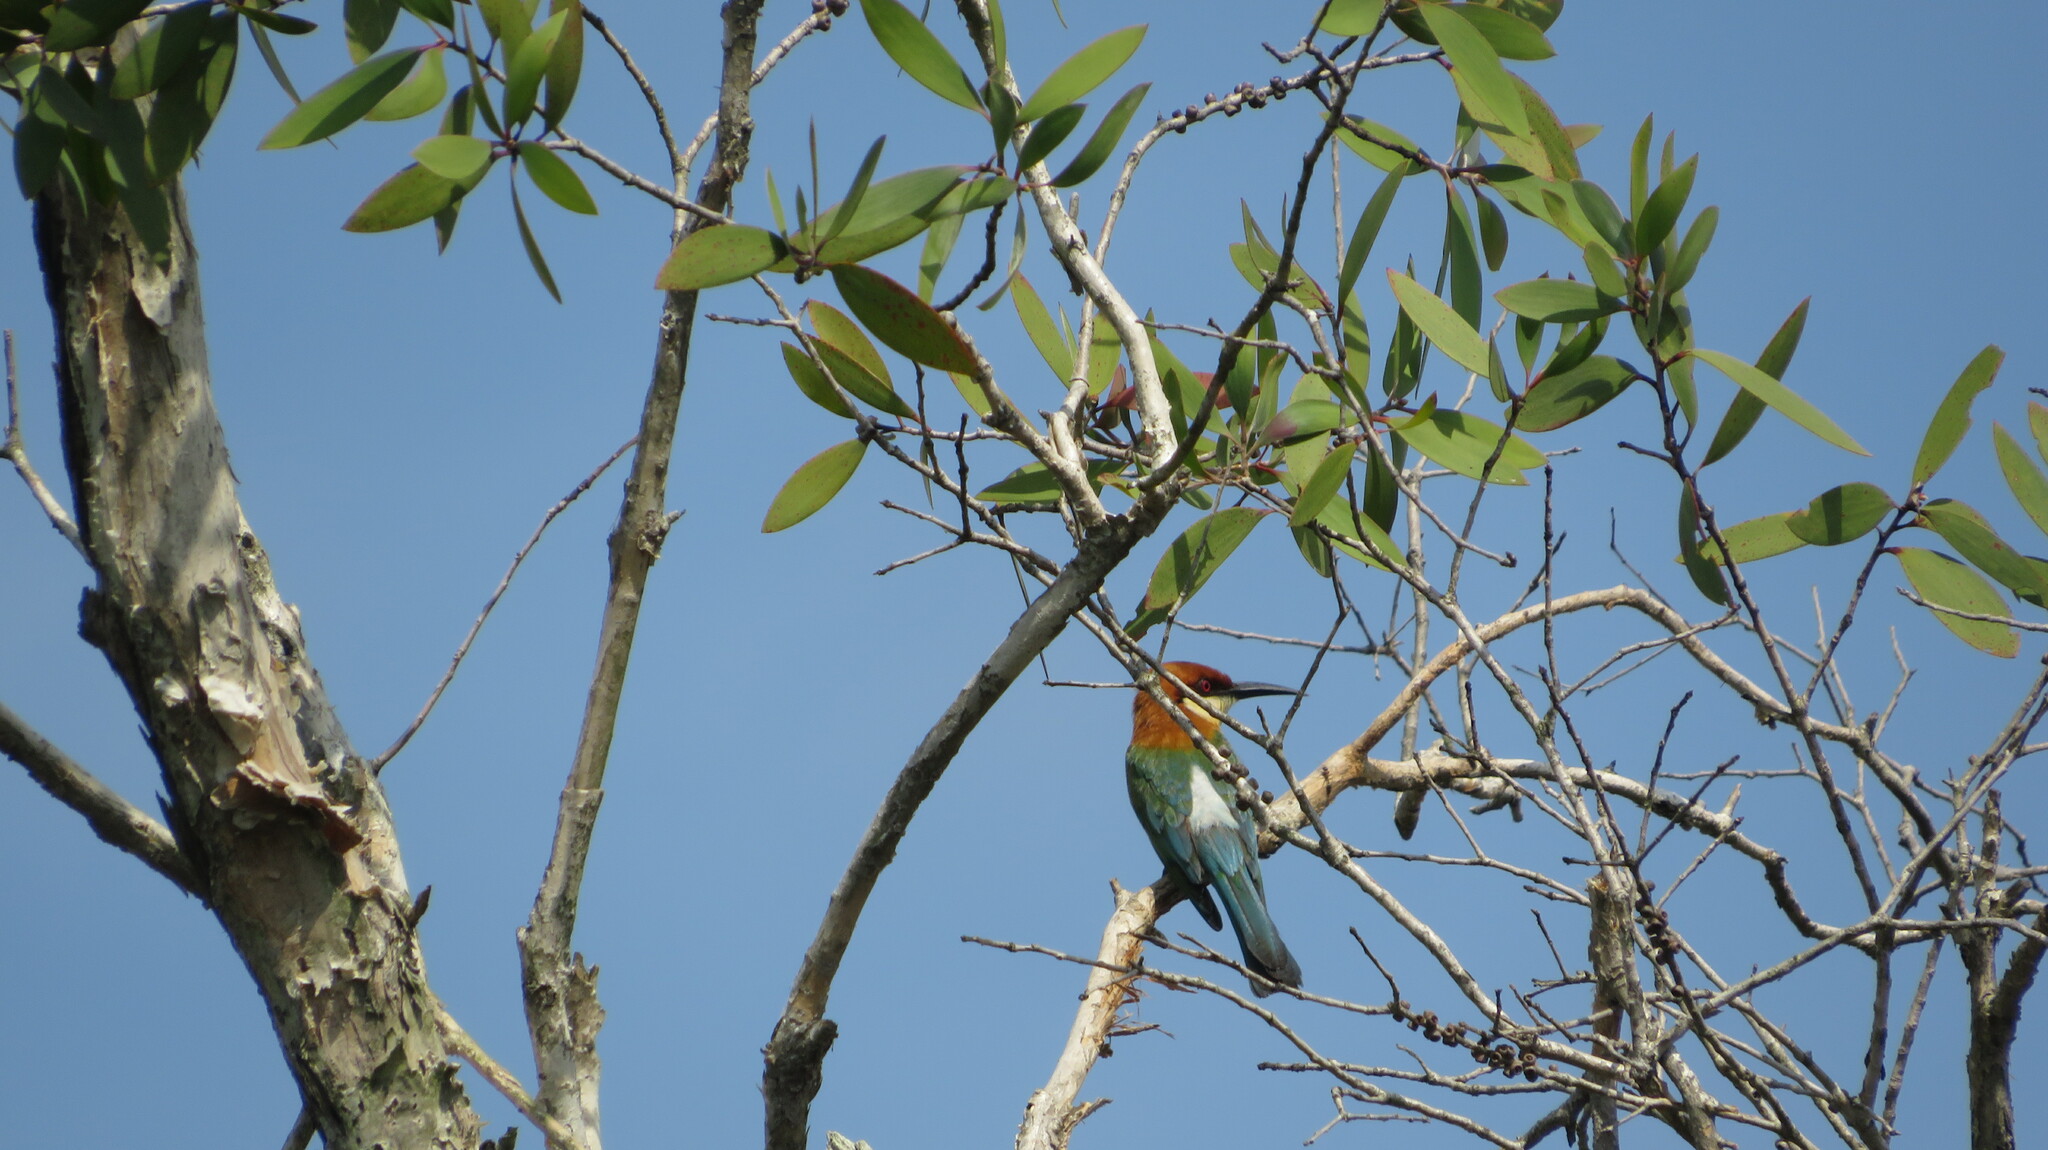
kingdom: Animalia
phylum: Chordata
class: Aves
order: Coraciiformes
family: Meropidae
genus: Merops
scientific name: Merops leschenaulti
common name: Chestnut-headed bee-eater
